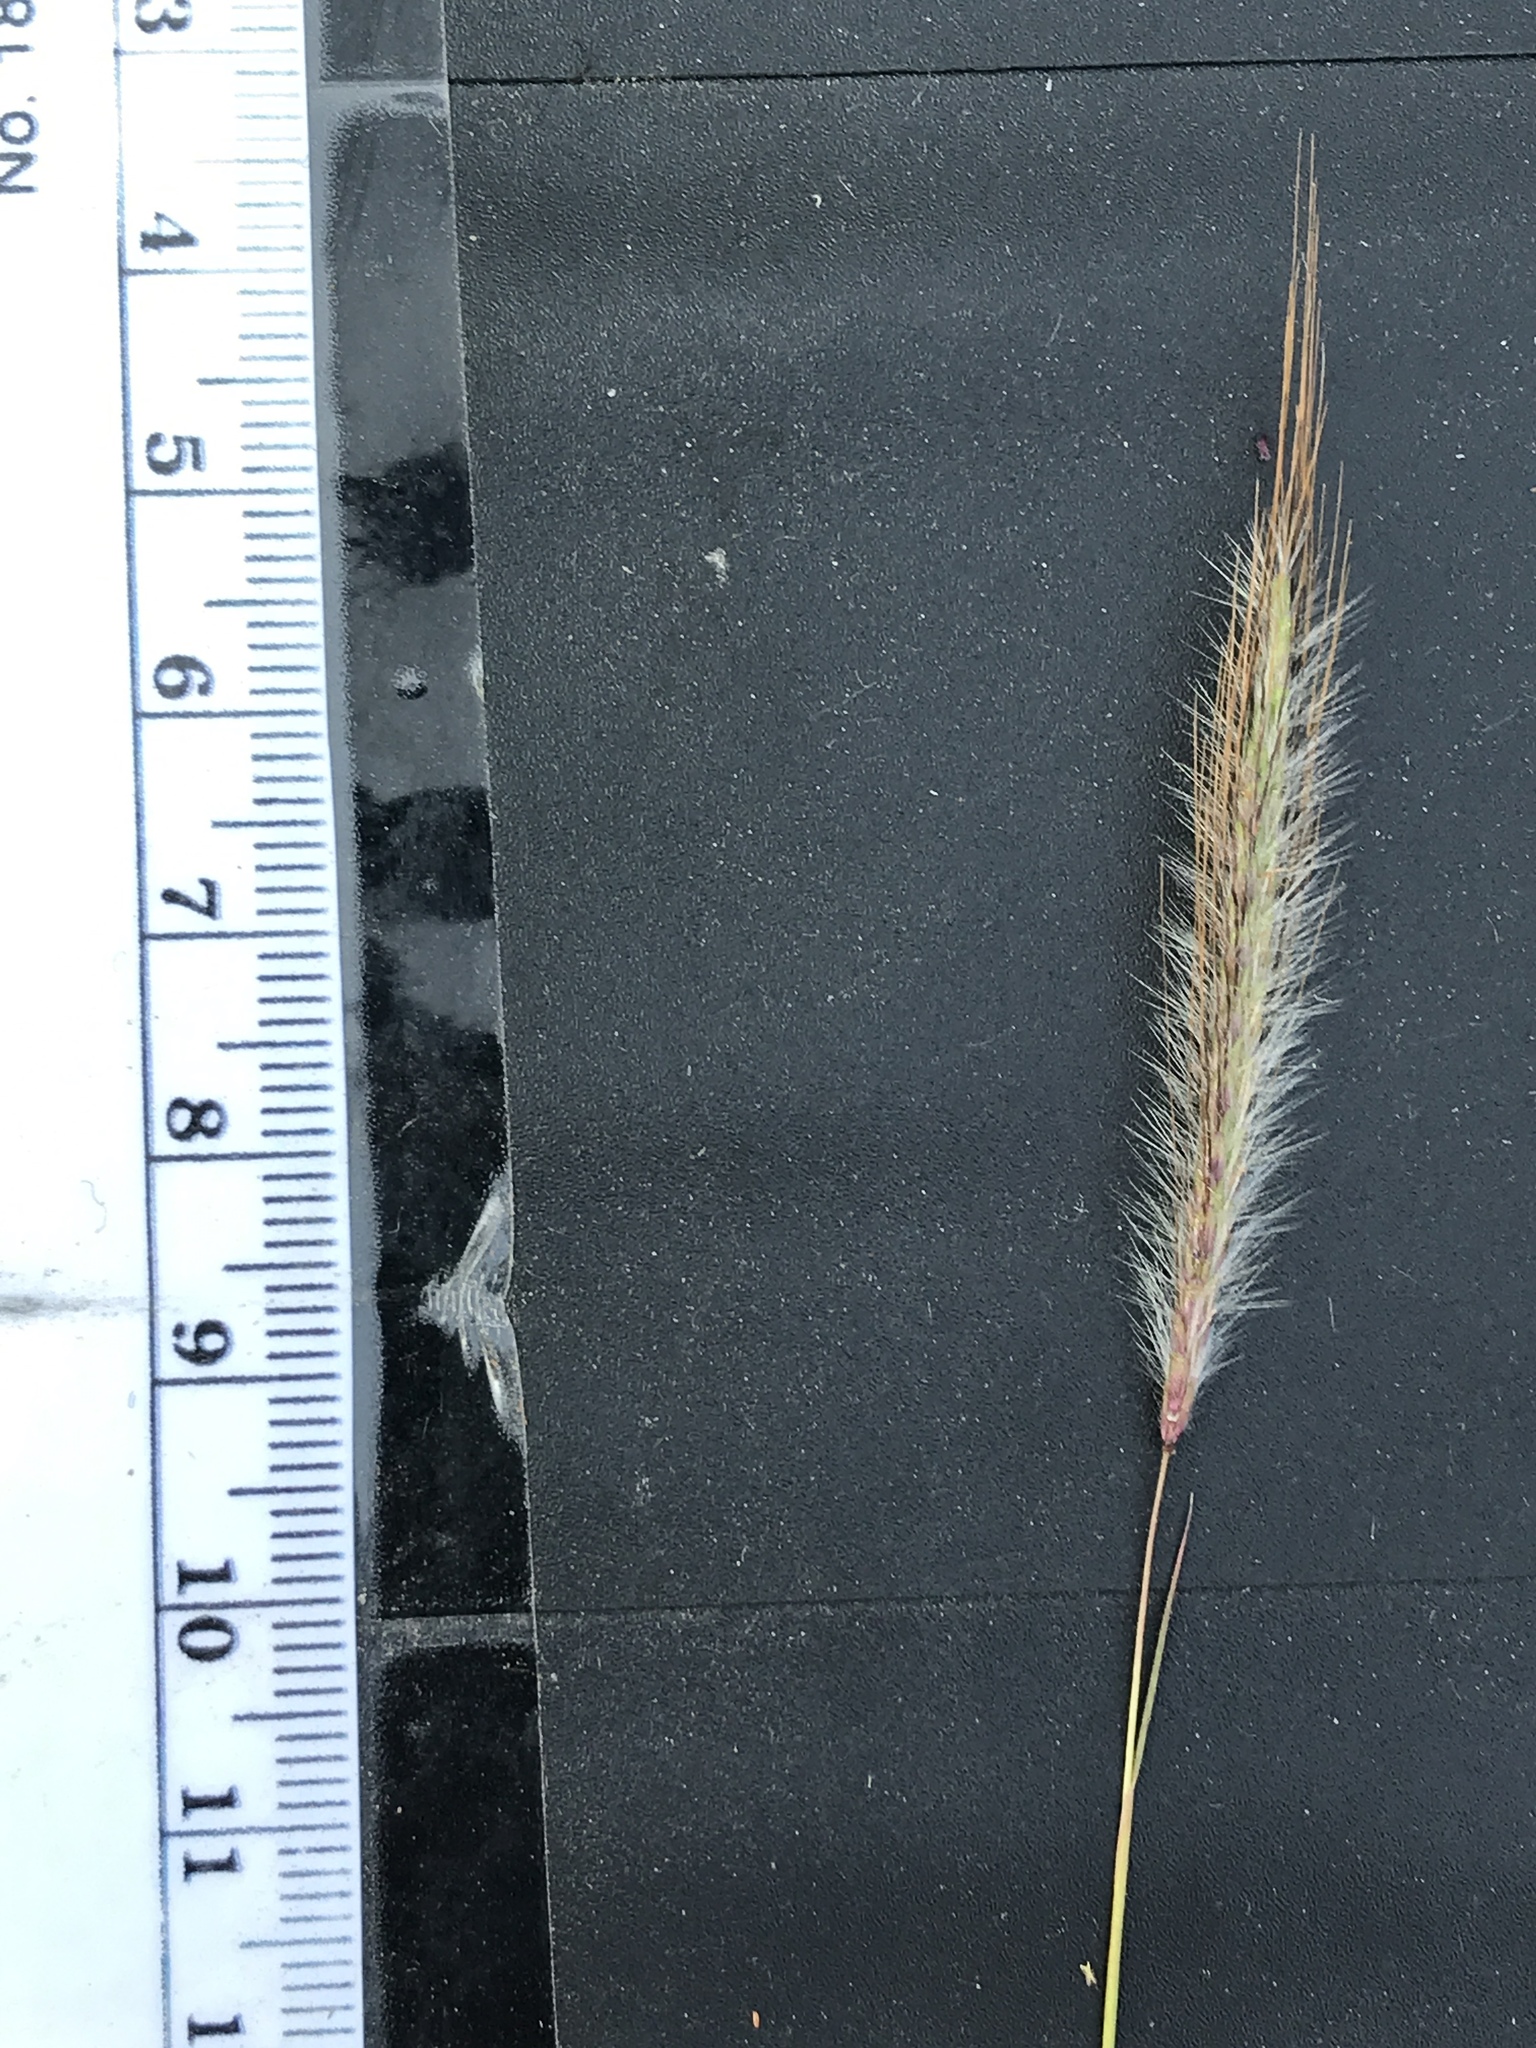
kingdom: Plantae
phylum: Tracheophyta
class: Liliopsida
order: Poales
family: Poaceae
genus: Dichanthium
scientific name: Dichanthium sericeum
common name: Silky bluestem
